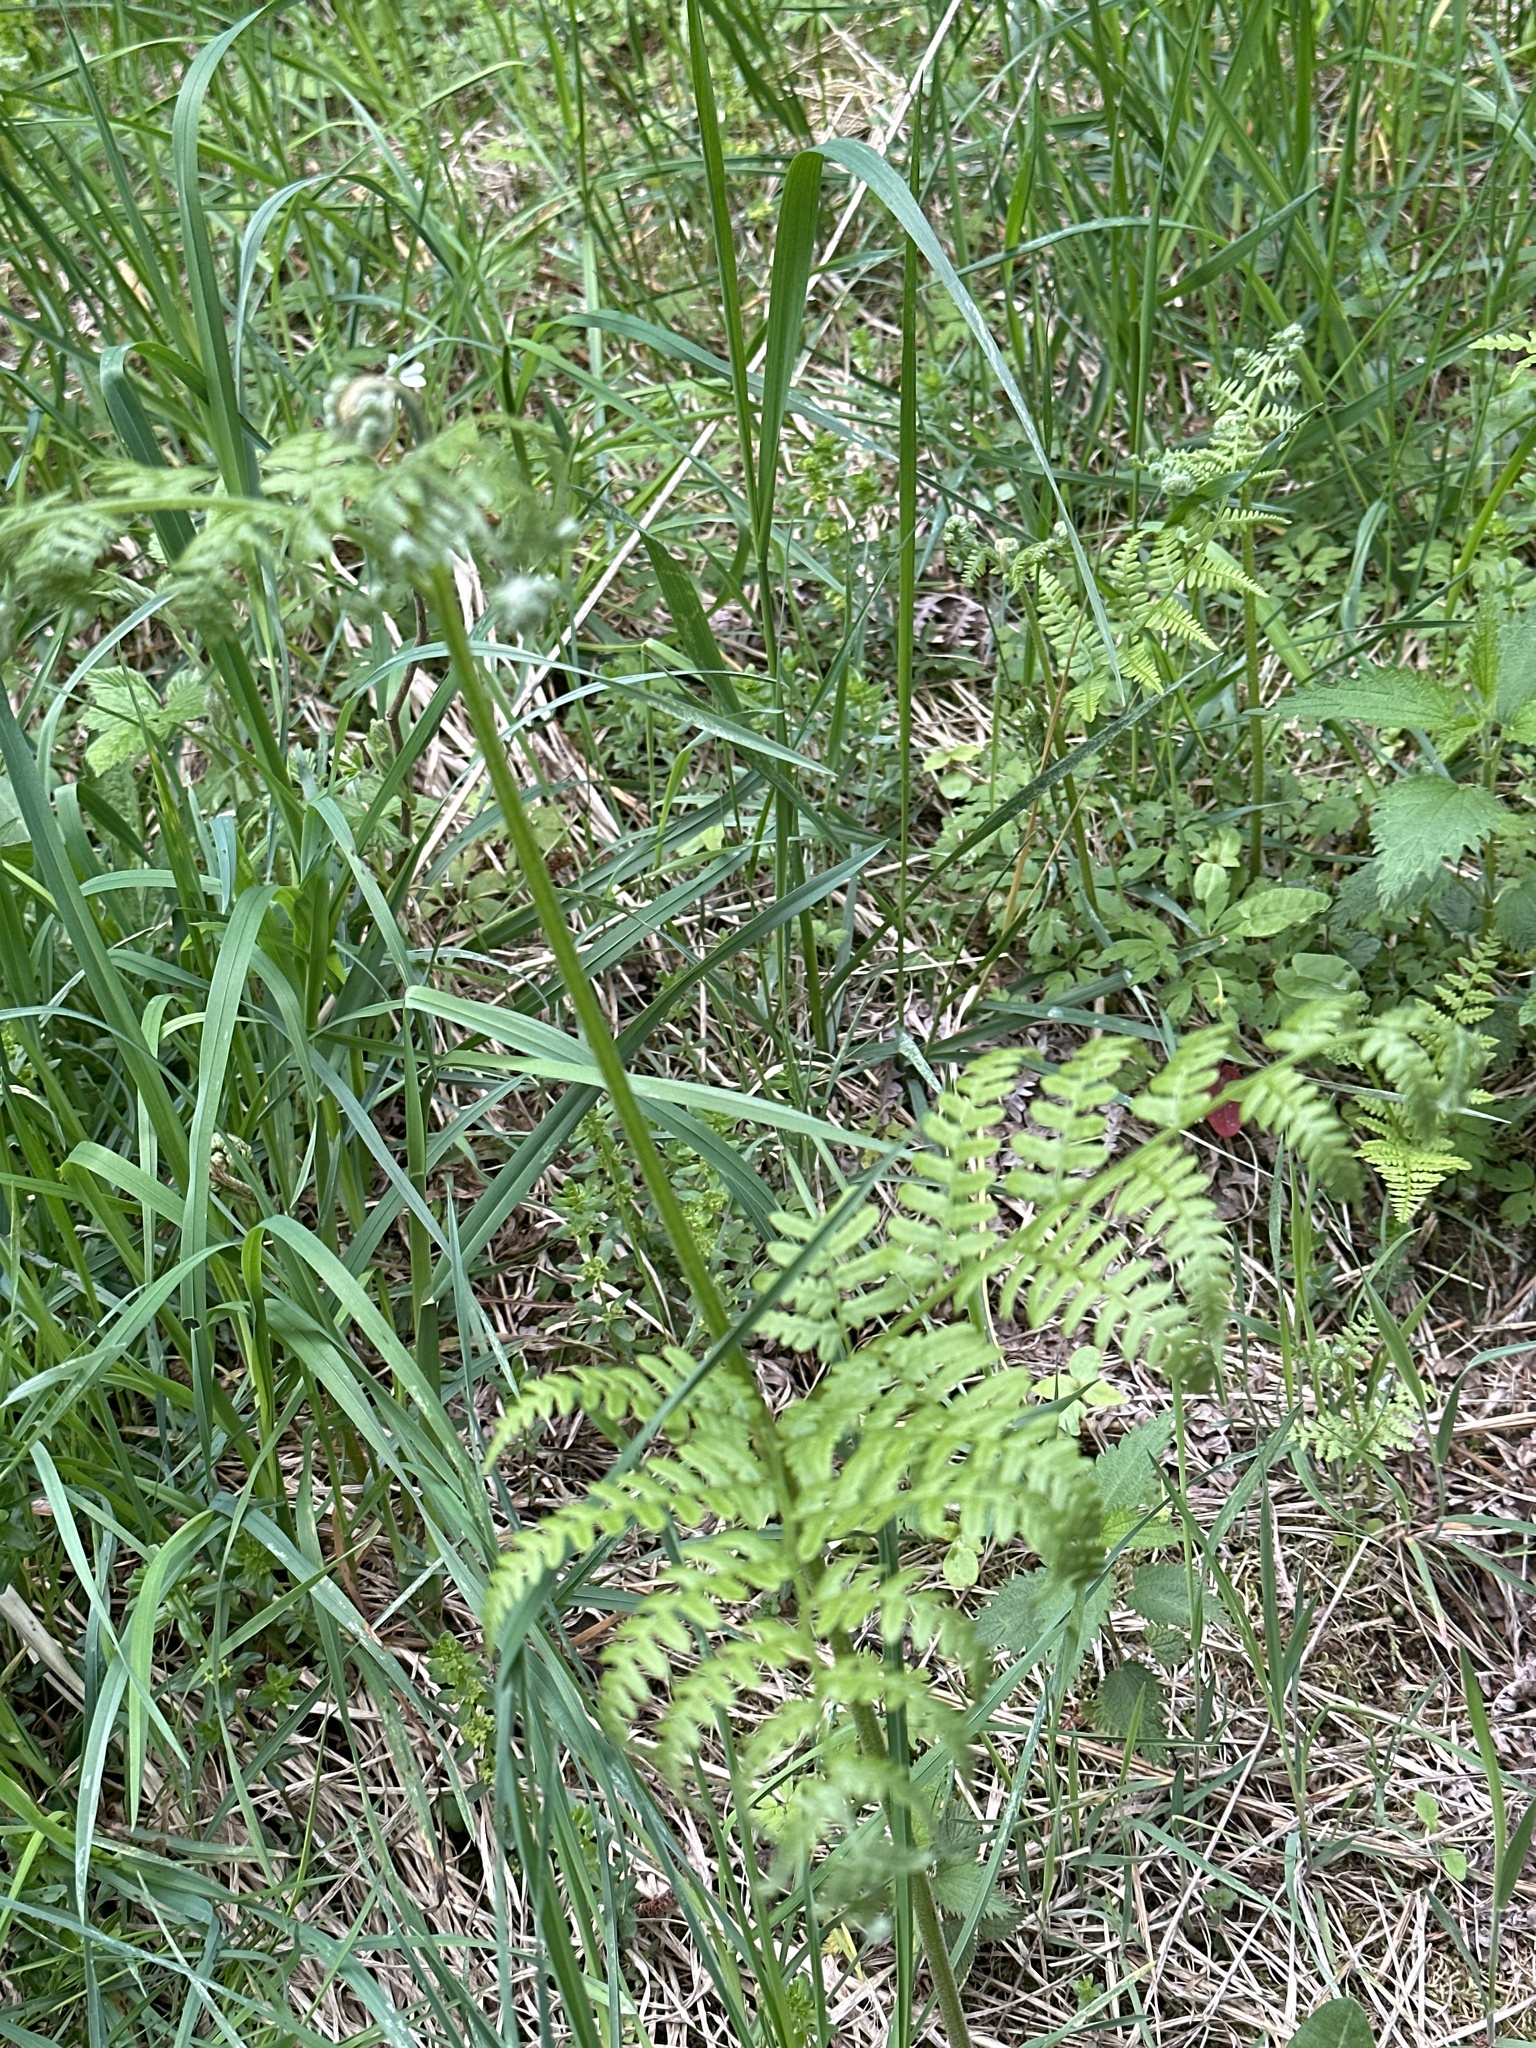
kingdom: Plantae
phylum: Tracheophyta
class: Polypodiopsida
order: Polypodiales
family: Dennstaedtiaceae
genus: Pteridium
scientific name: Pteridium aquilinum
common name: Bracken
